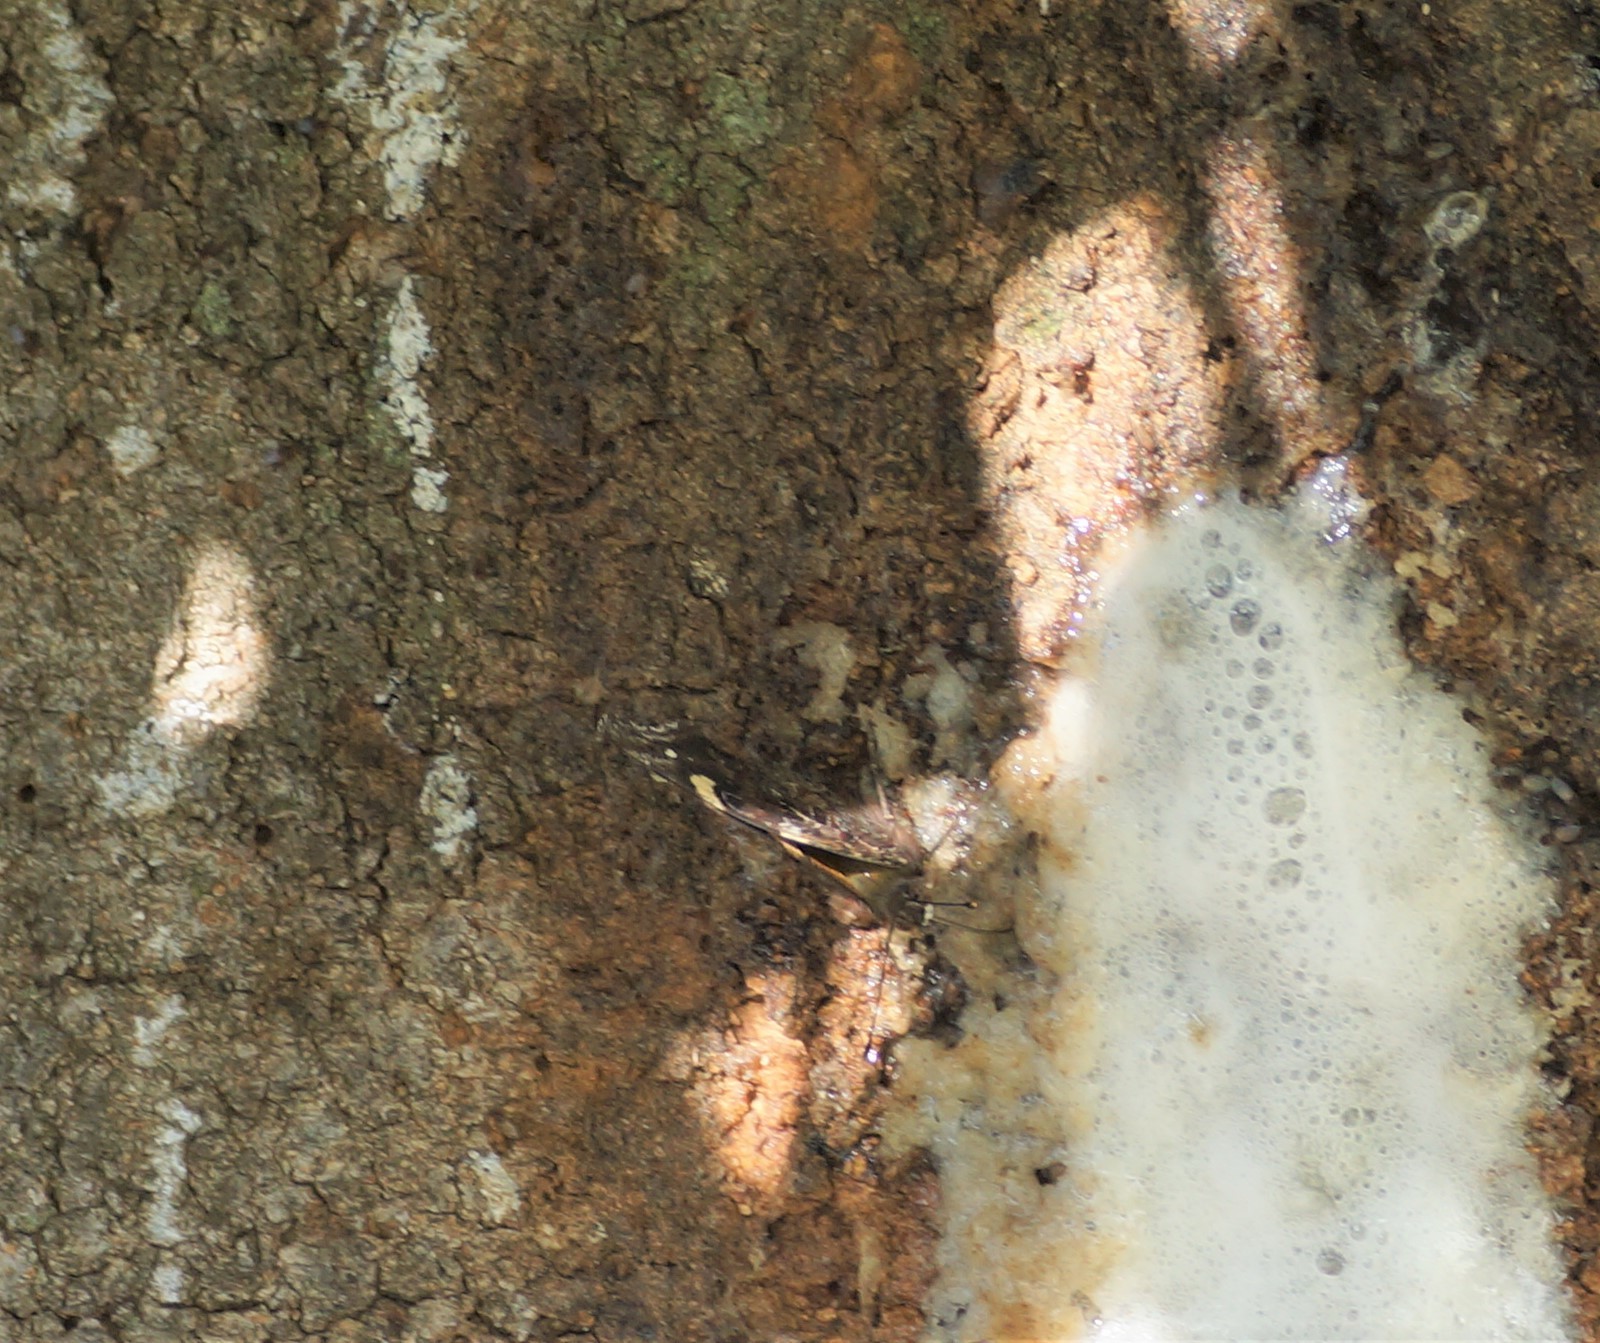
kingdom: Animalia
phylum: Arthropoda
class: Insecta
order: Lepidoptera
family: Nymphalidae
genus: Vanessa
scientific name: Vanessa itea
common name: Yellow admiral
